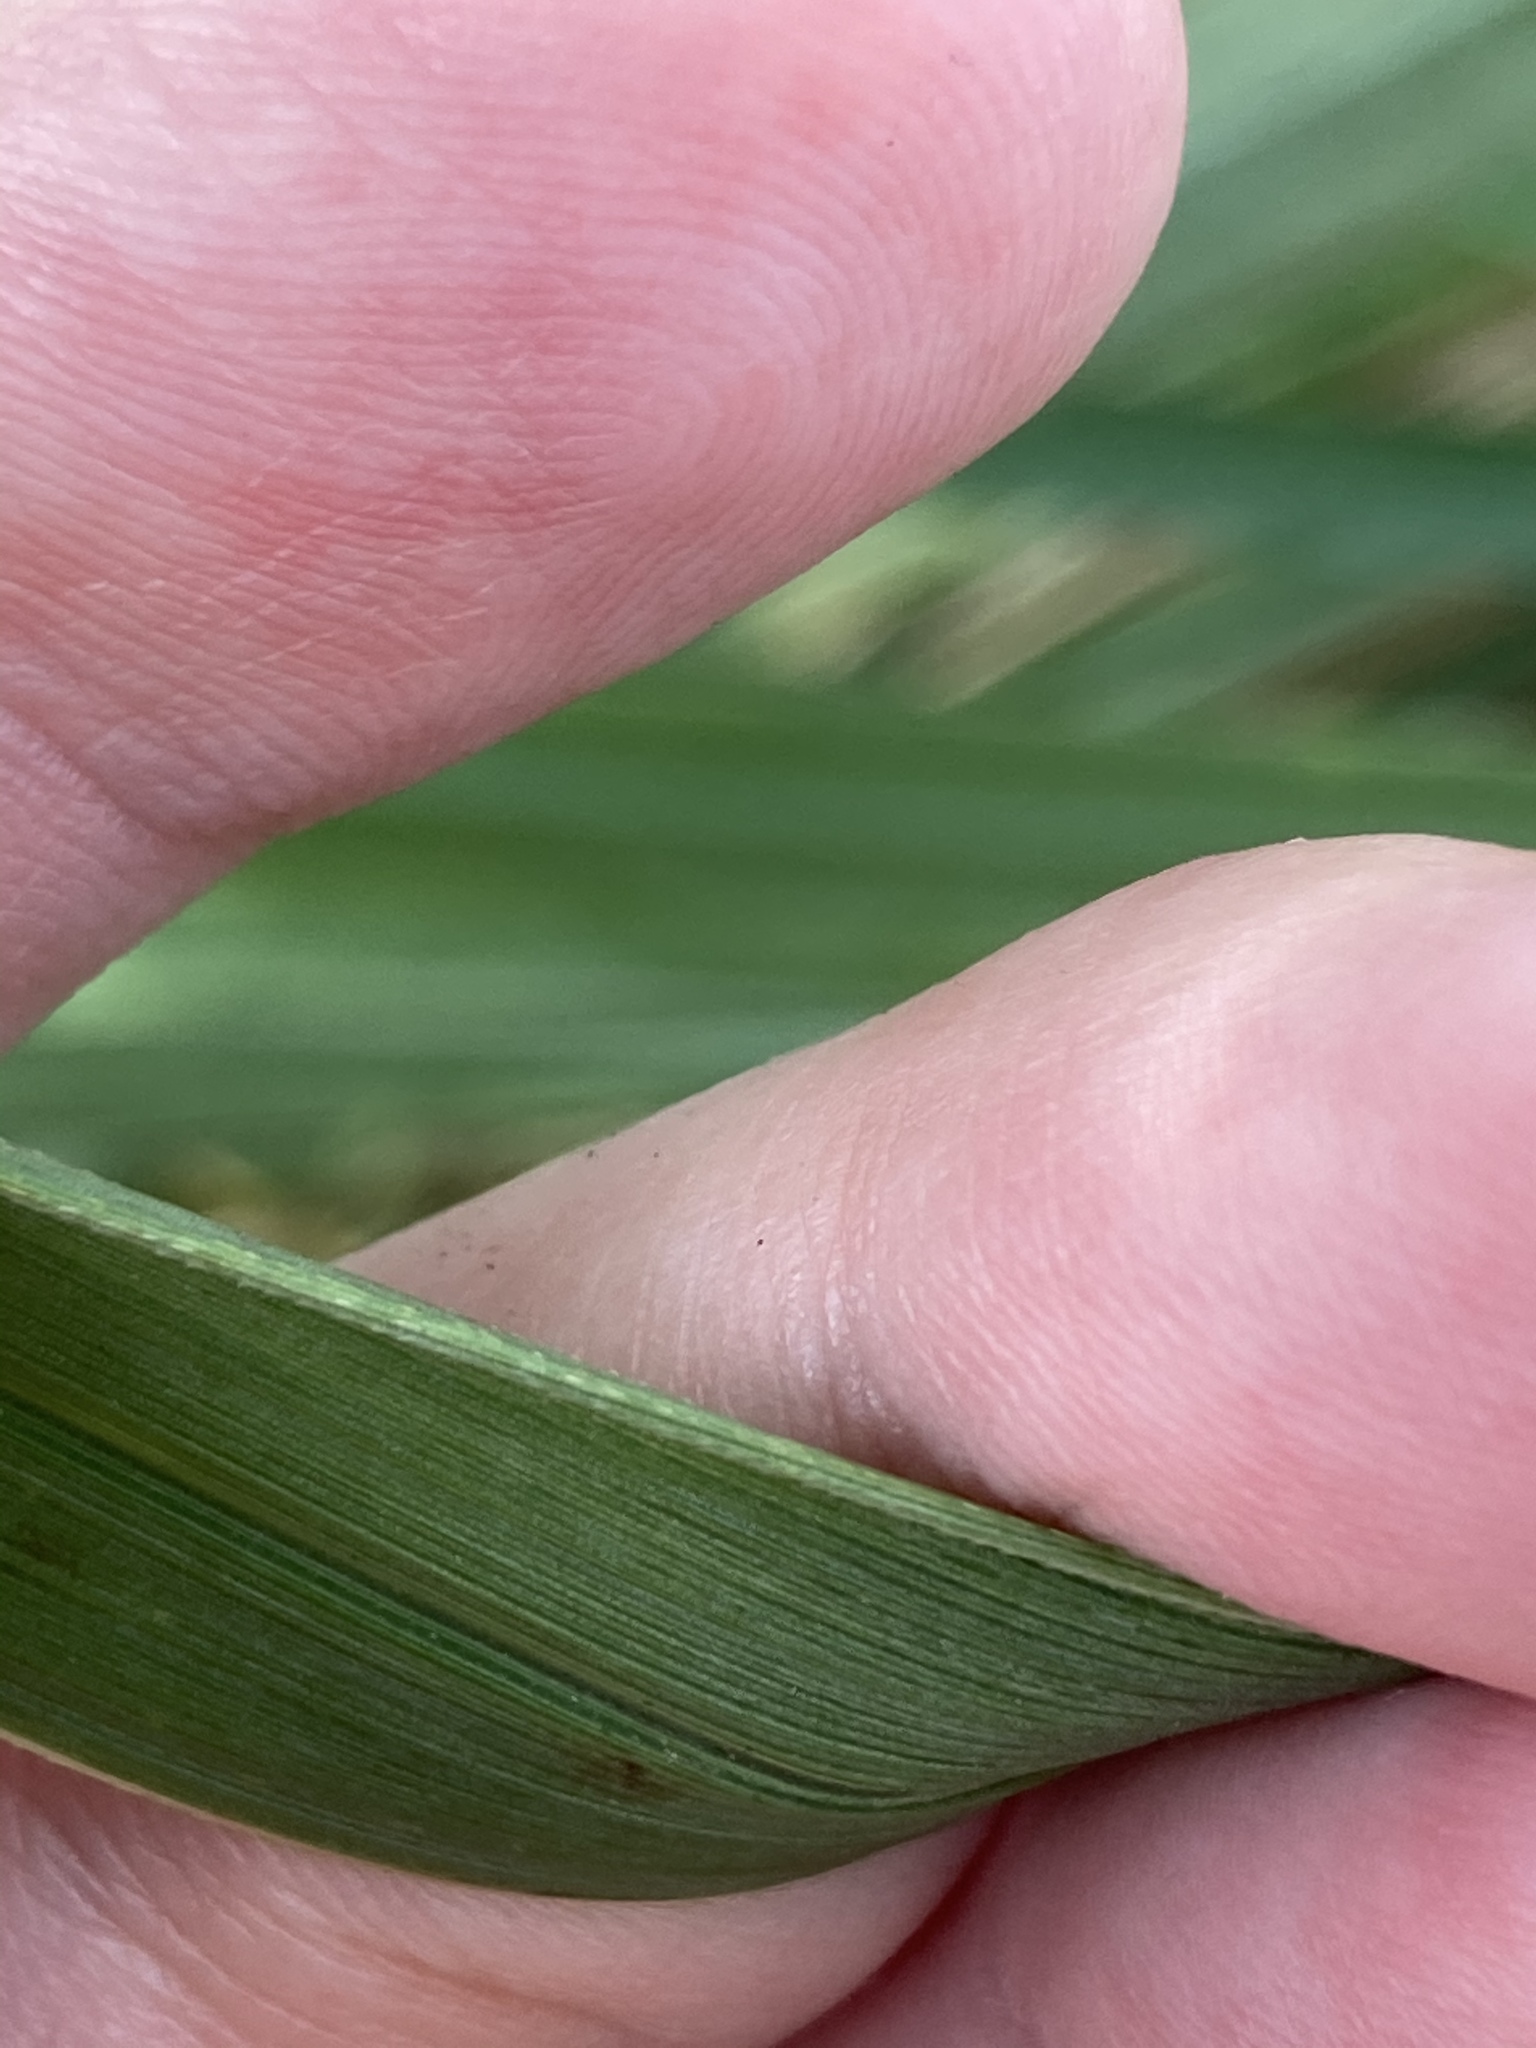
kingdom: Plantae
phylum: Tracheophyta
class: Liliopsida
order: Poales
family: Poaceae
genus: Tripsacum
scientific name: Tripsacum dactyloides
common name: Buffalo-grass
